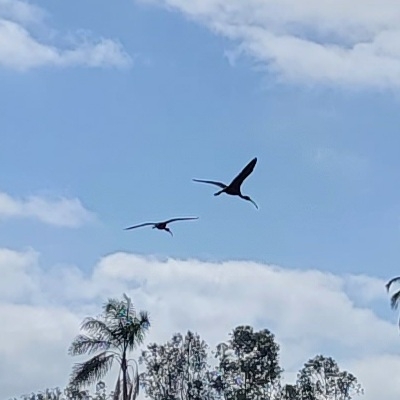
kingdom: Animalia
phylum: Chordata
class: Aves
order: Pelecaniformes
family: Threskiornithidae
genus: Plegadis
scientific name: Plegadis chihi
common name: White-faced ibis
